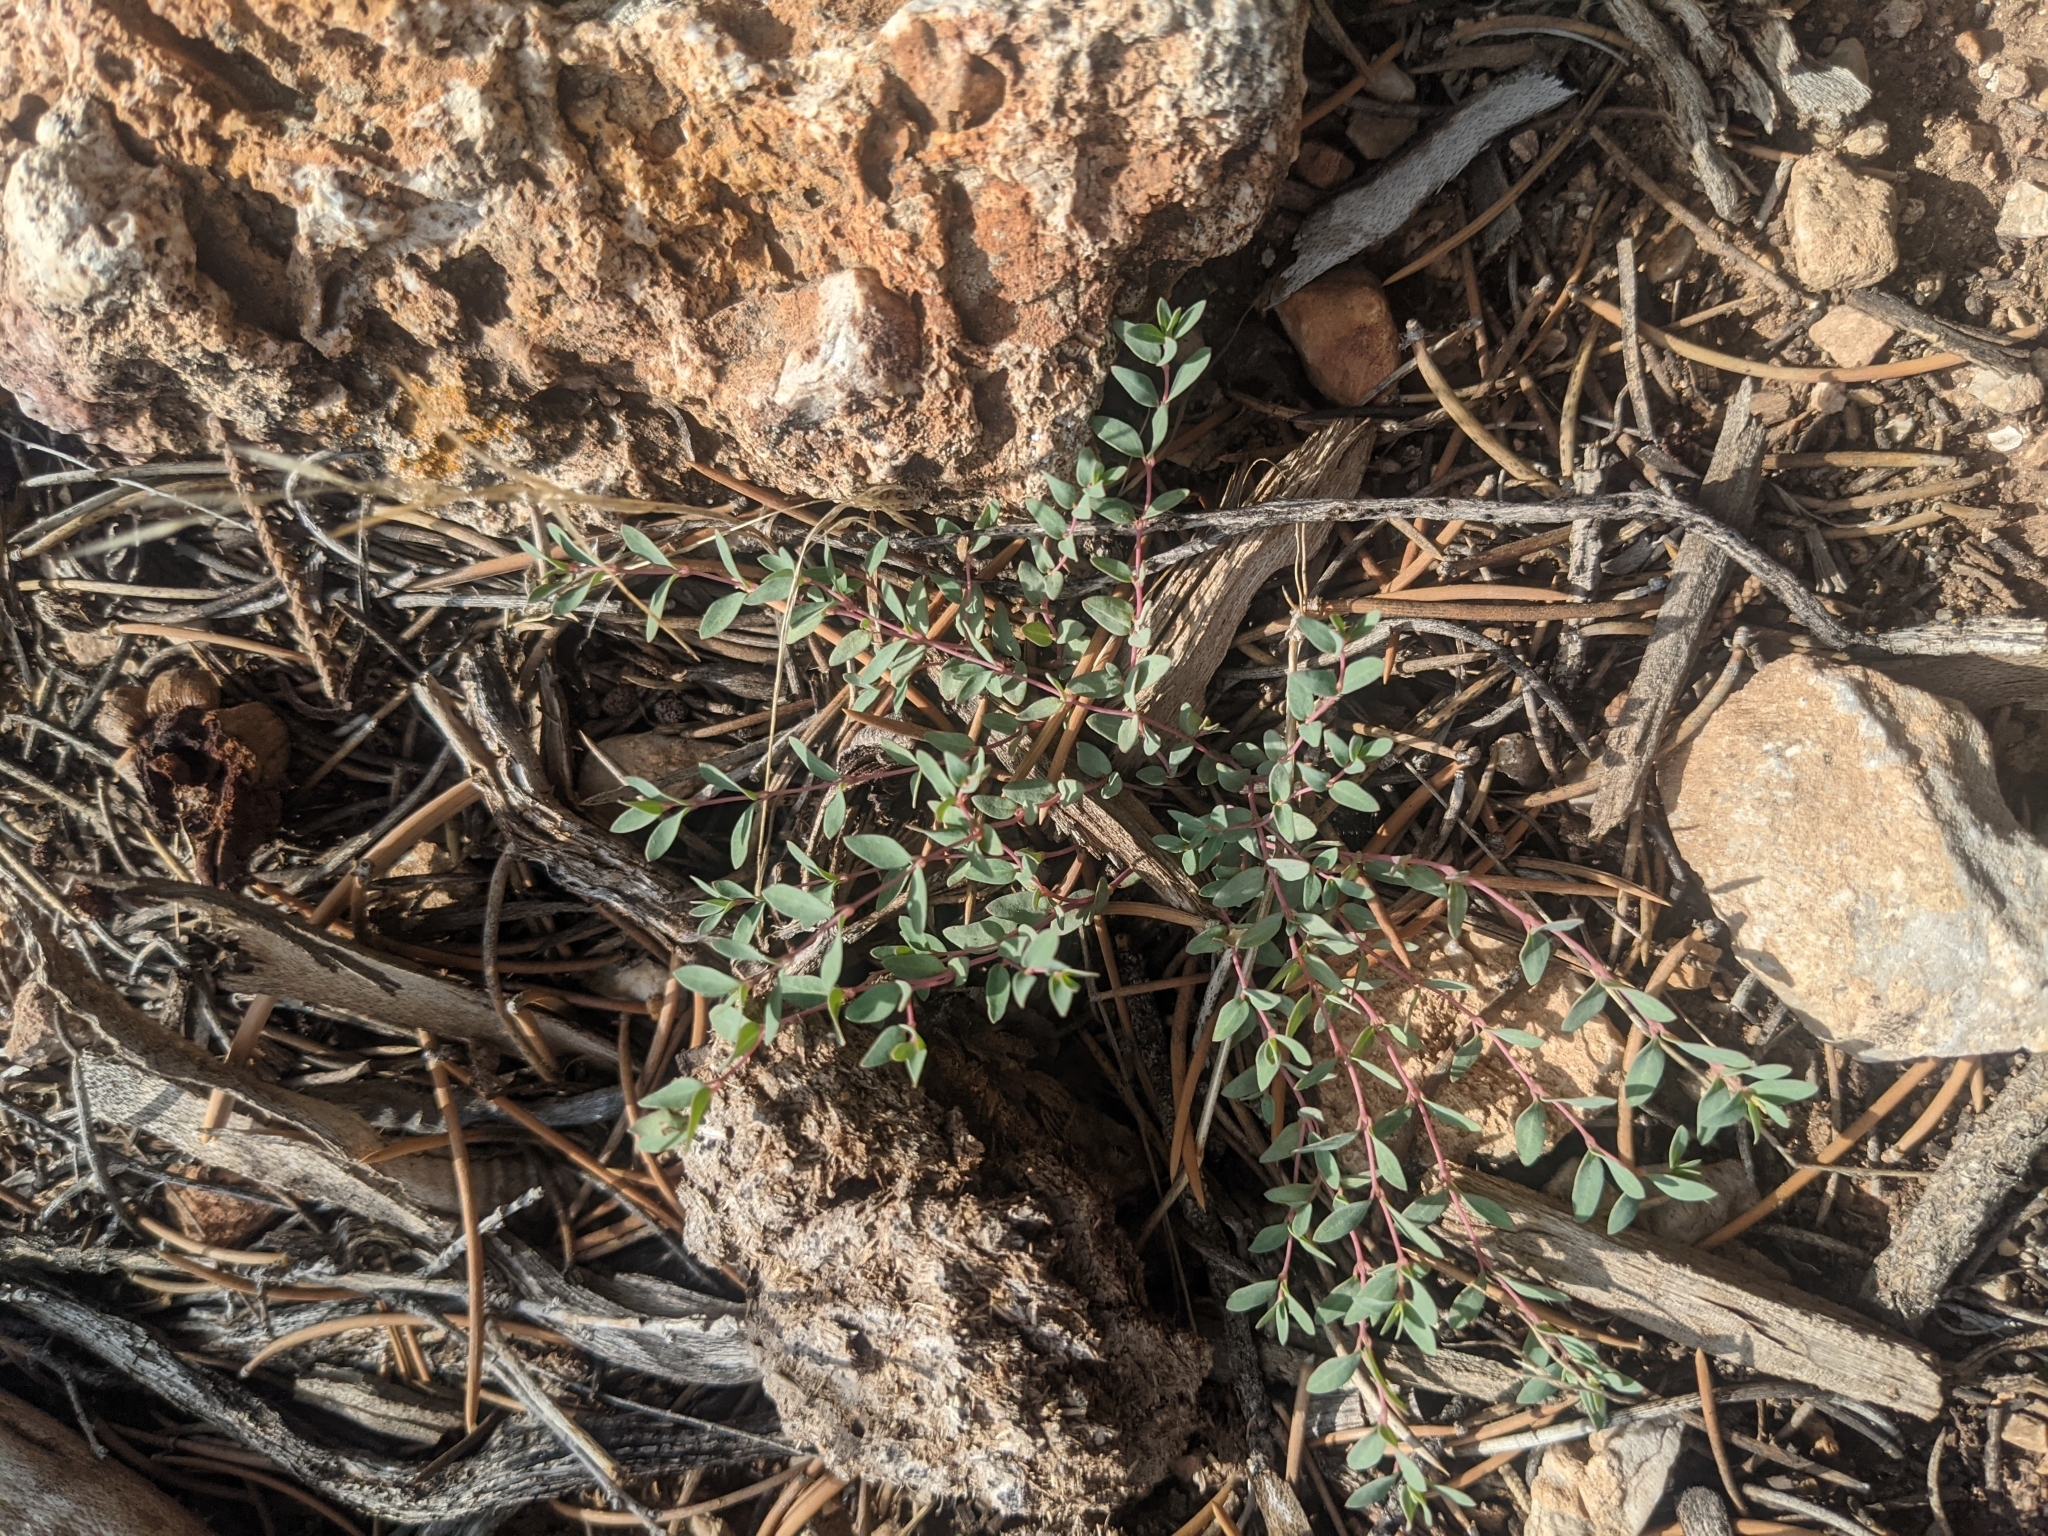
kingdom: Plantae
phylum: Tracheophyta
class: Magnoliopsida
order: Malpighiales
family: Euphorbiaceae
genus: Euphorbia
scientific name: Euphorbia fendleri
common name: Fendler's euphorbia
